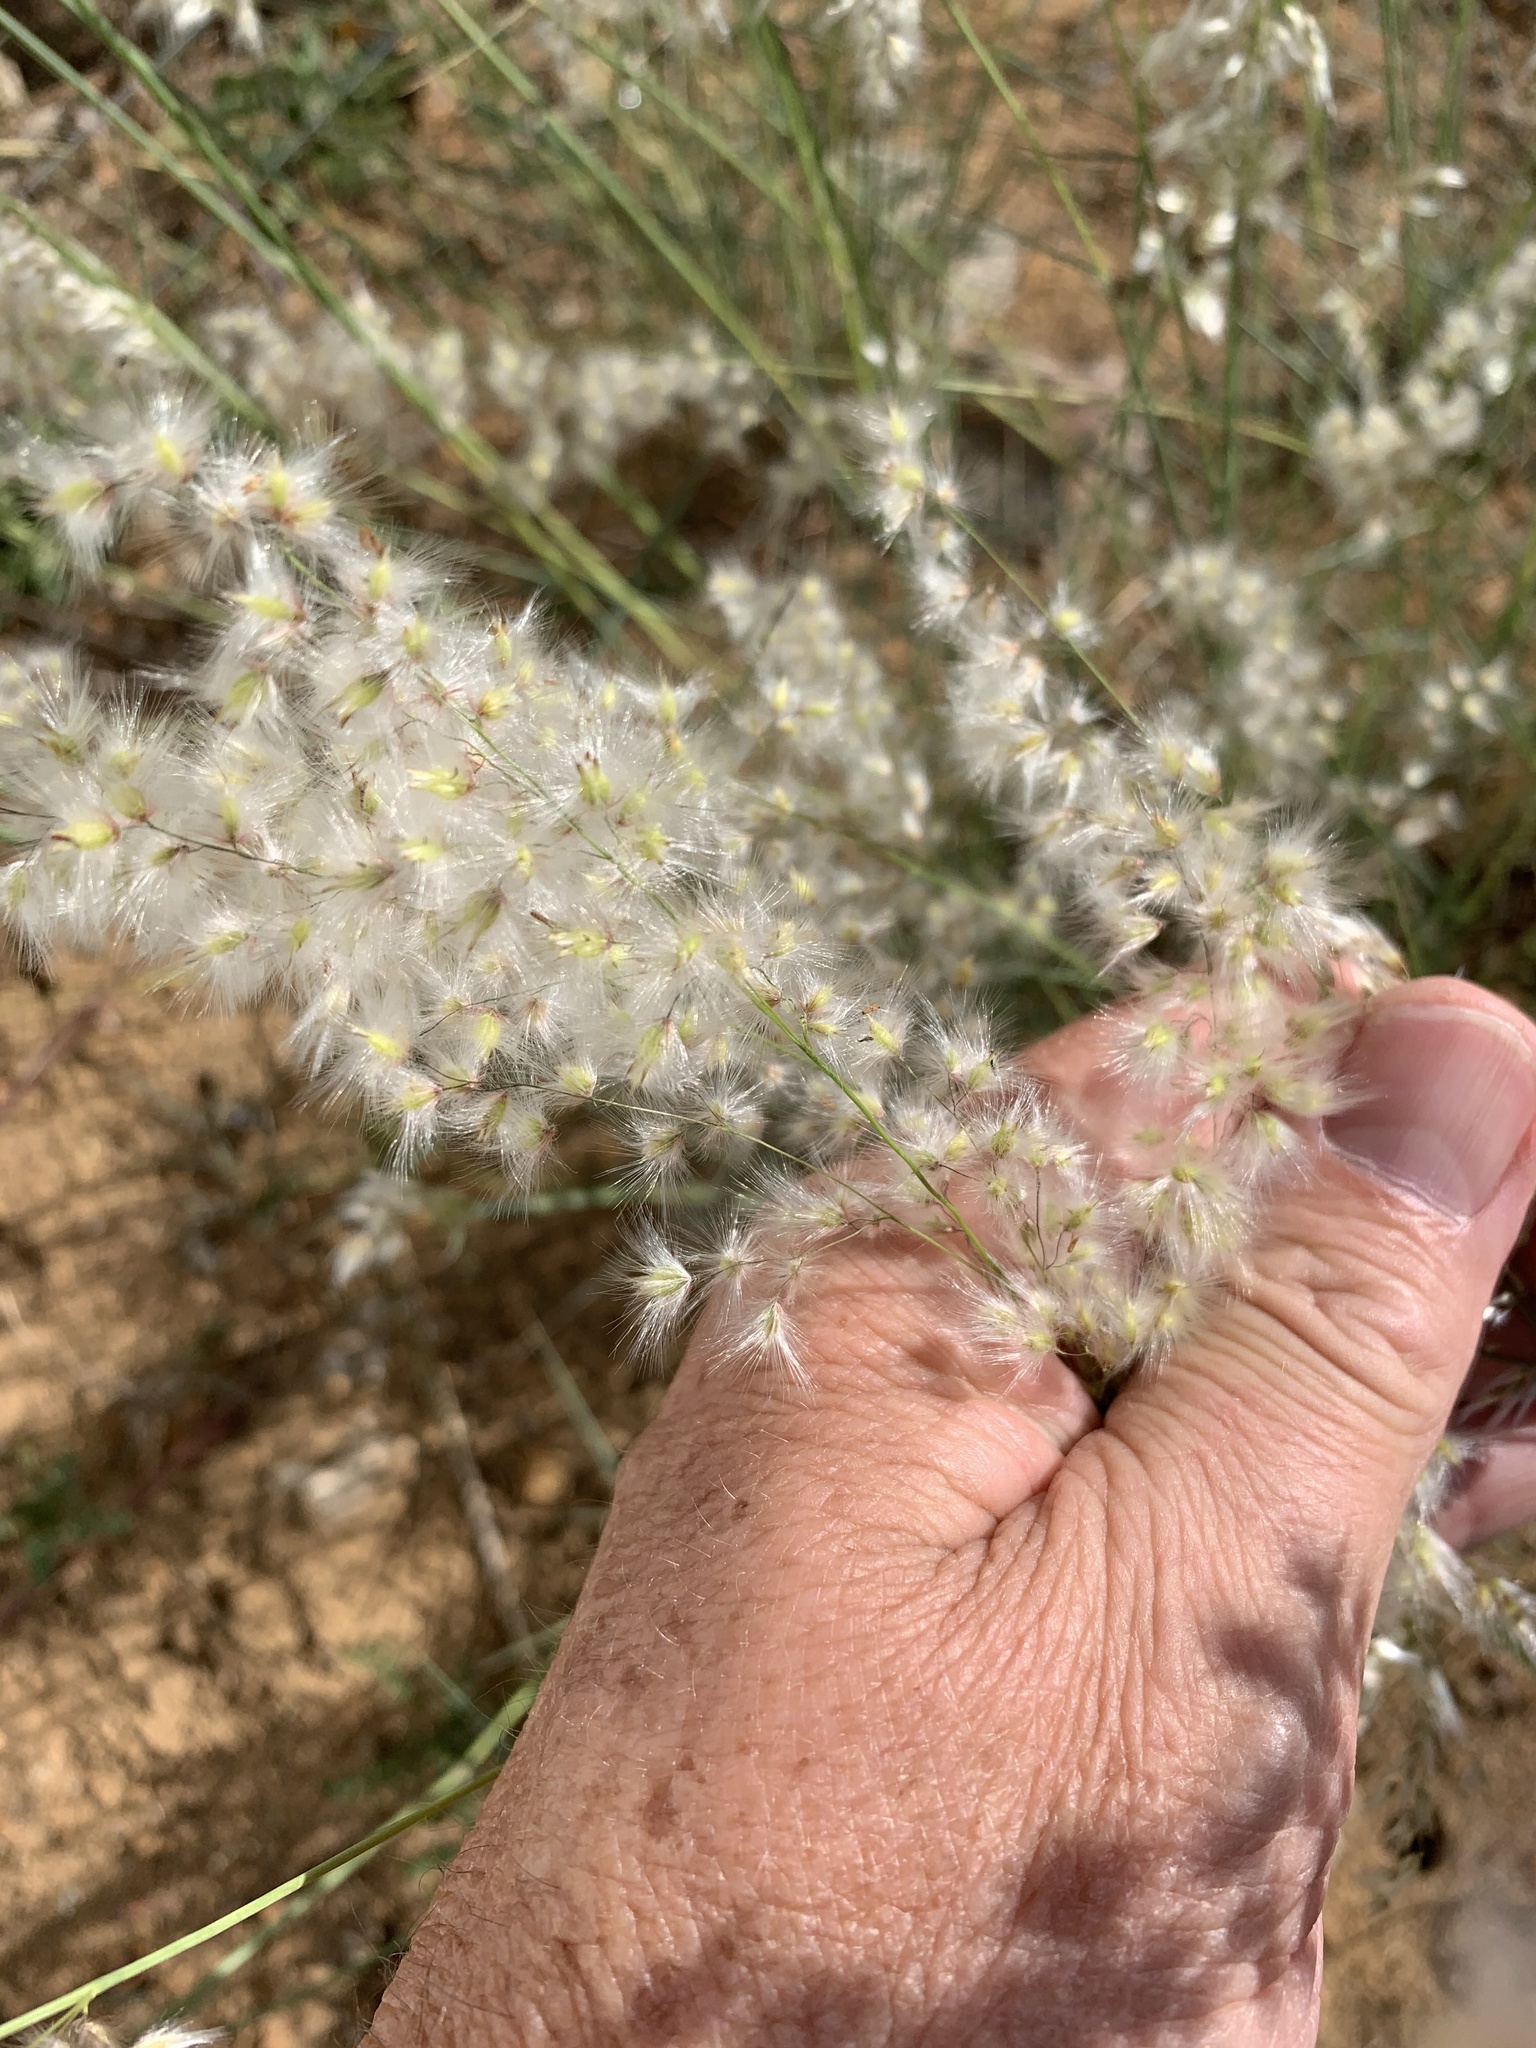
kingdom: Plantae
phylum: Tracheophyta
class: Liliopsida
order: Poales
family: Poaceae
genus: Melinis
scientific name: Melinis repens
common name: Rose natal grass
